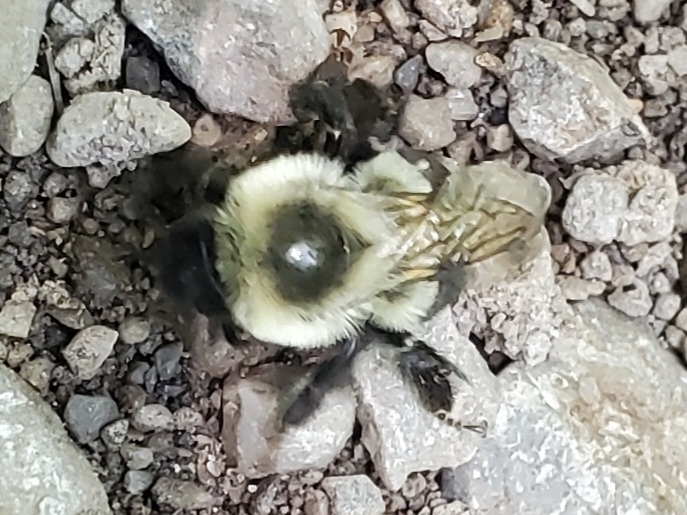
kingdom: Animalia
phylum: Arthropoda
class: Insecta
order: Hymenoptera
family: Apidae
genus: Bombus
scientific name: Bombus impatiens
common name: Common eastern bumble bee
